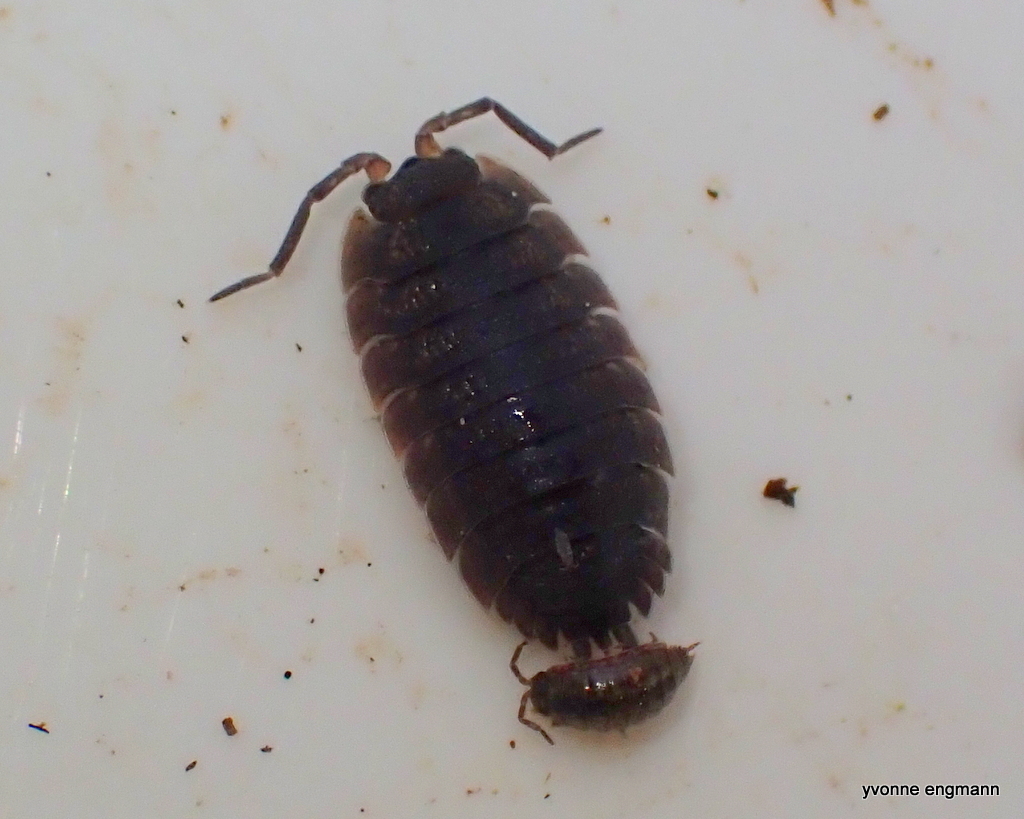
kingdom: Animalia
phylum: Arthropoda
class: Malacostraca
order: Isopoda
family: Porcellionidae
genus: Porcellio
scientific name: Porcellio scaber
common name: Common rough woodlouse
